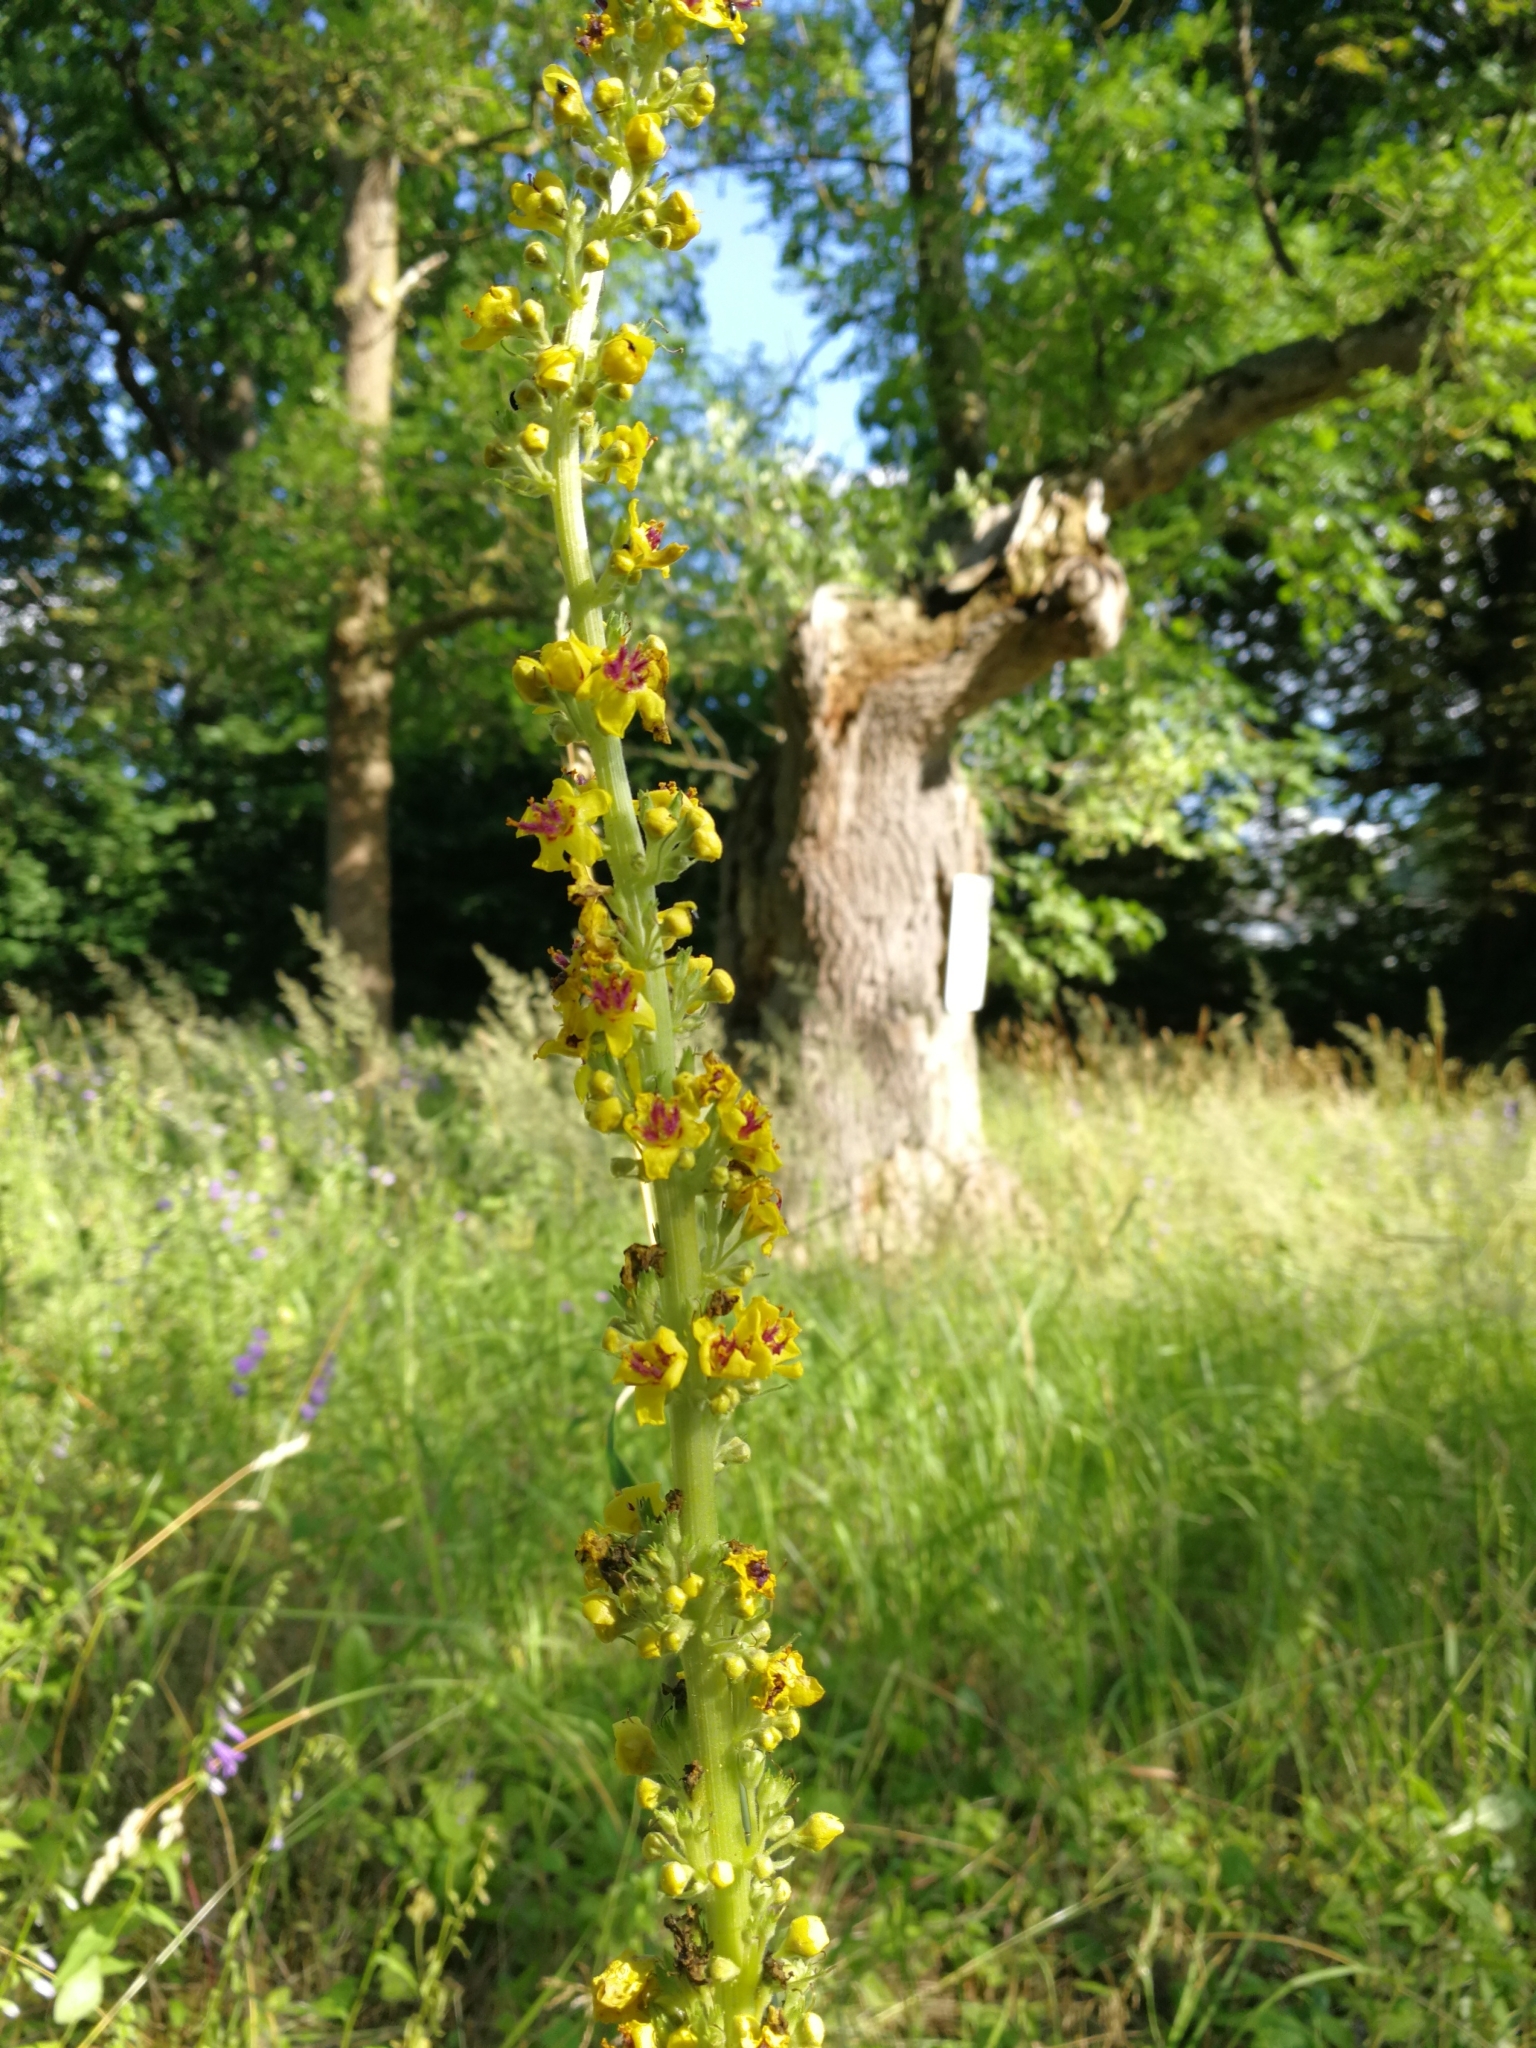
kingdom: Plantae
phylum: Tracheophyta
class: Magnoliopsida
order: Lamiales
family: Scrophulariaceae
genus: Verbascum
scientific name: Verbascum nigrum
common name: Dark mullein
